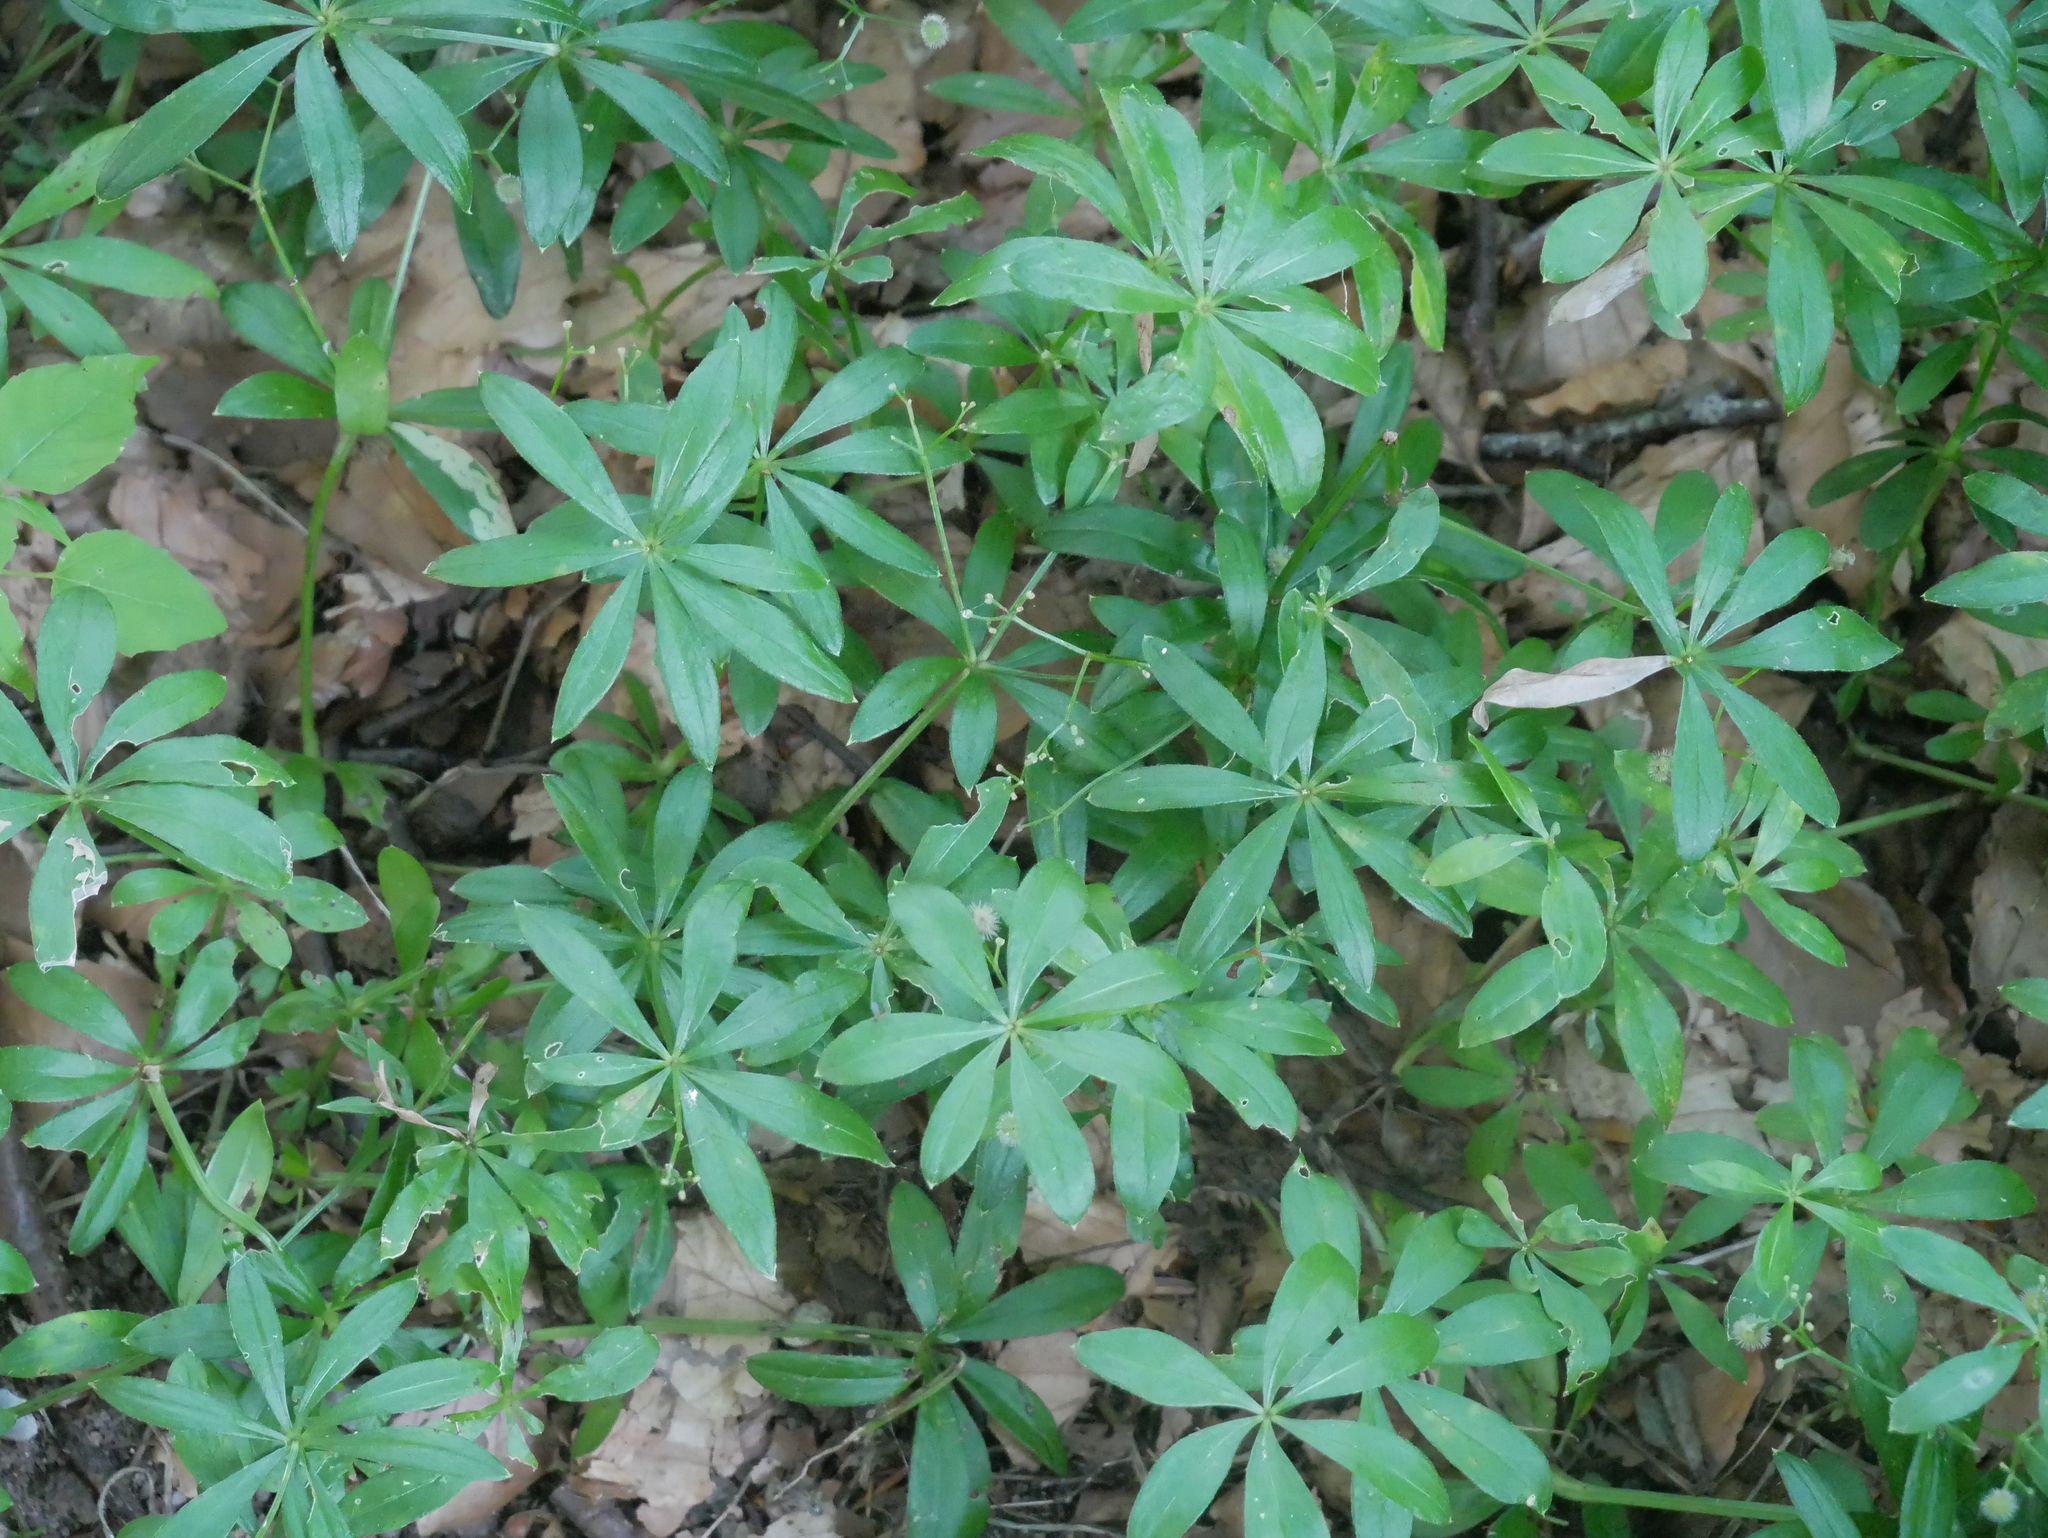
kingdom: Plantae
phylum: Tracheophyta
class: Magnoliopsida
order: Gentianales
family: Rubiaceae
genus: Galium
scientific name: Galium odoratum
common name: Sweet woodruff
